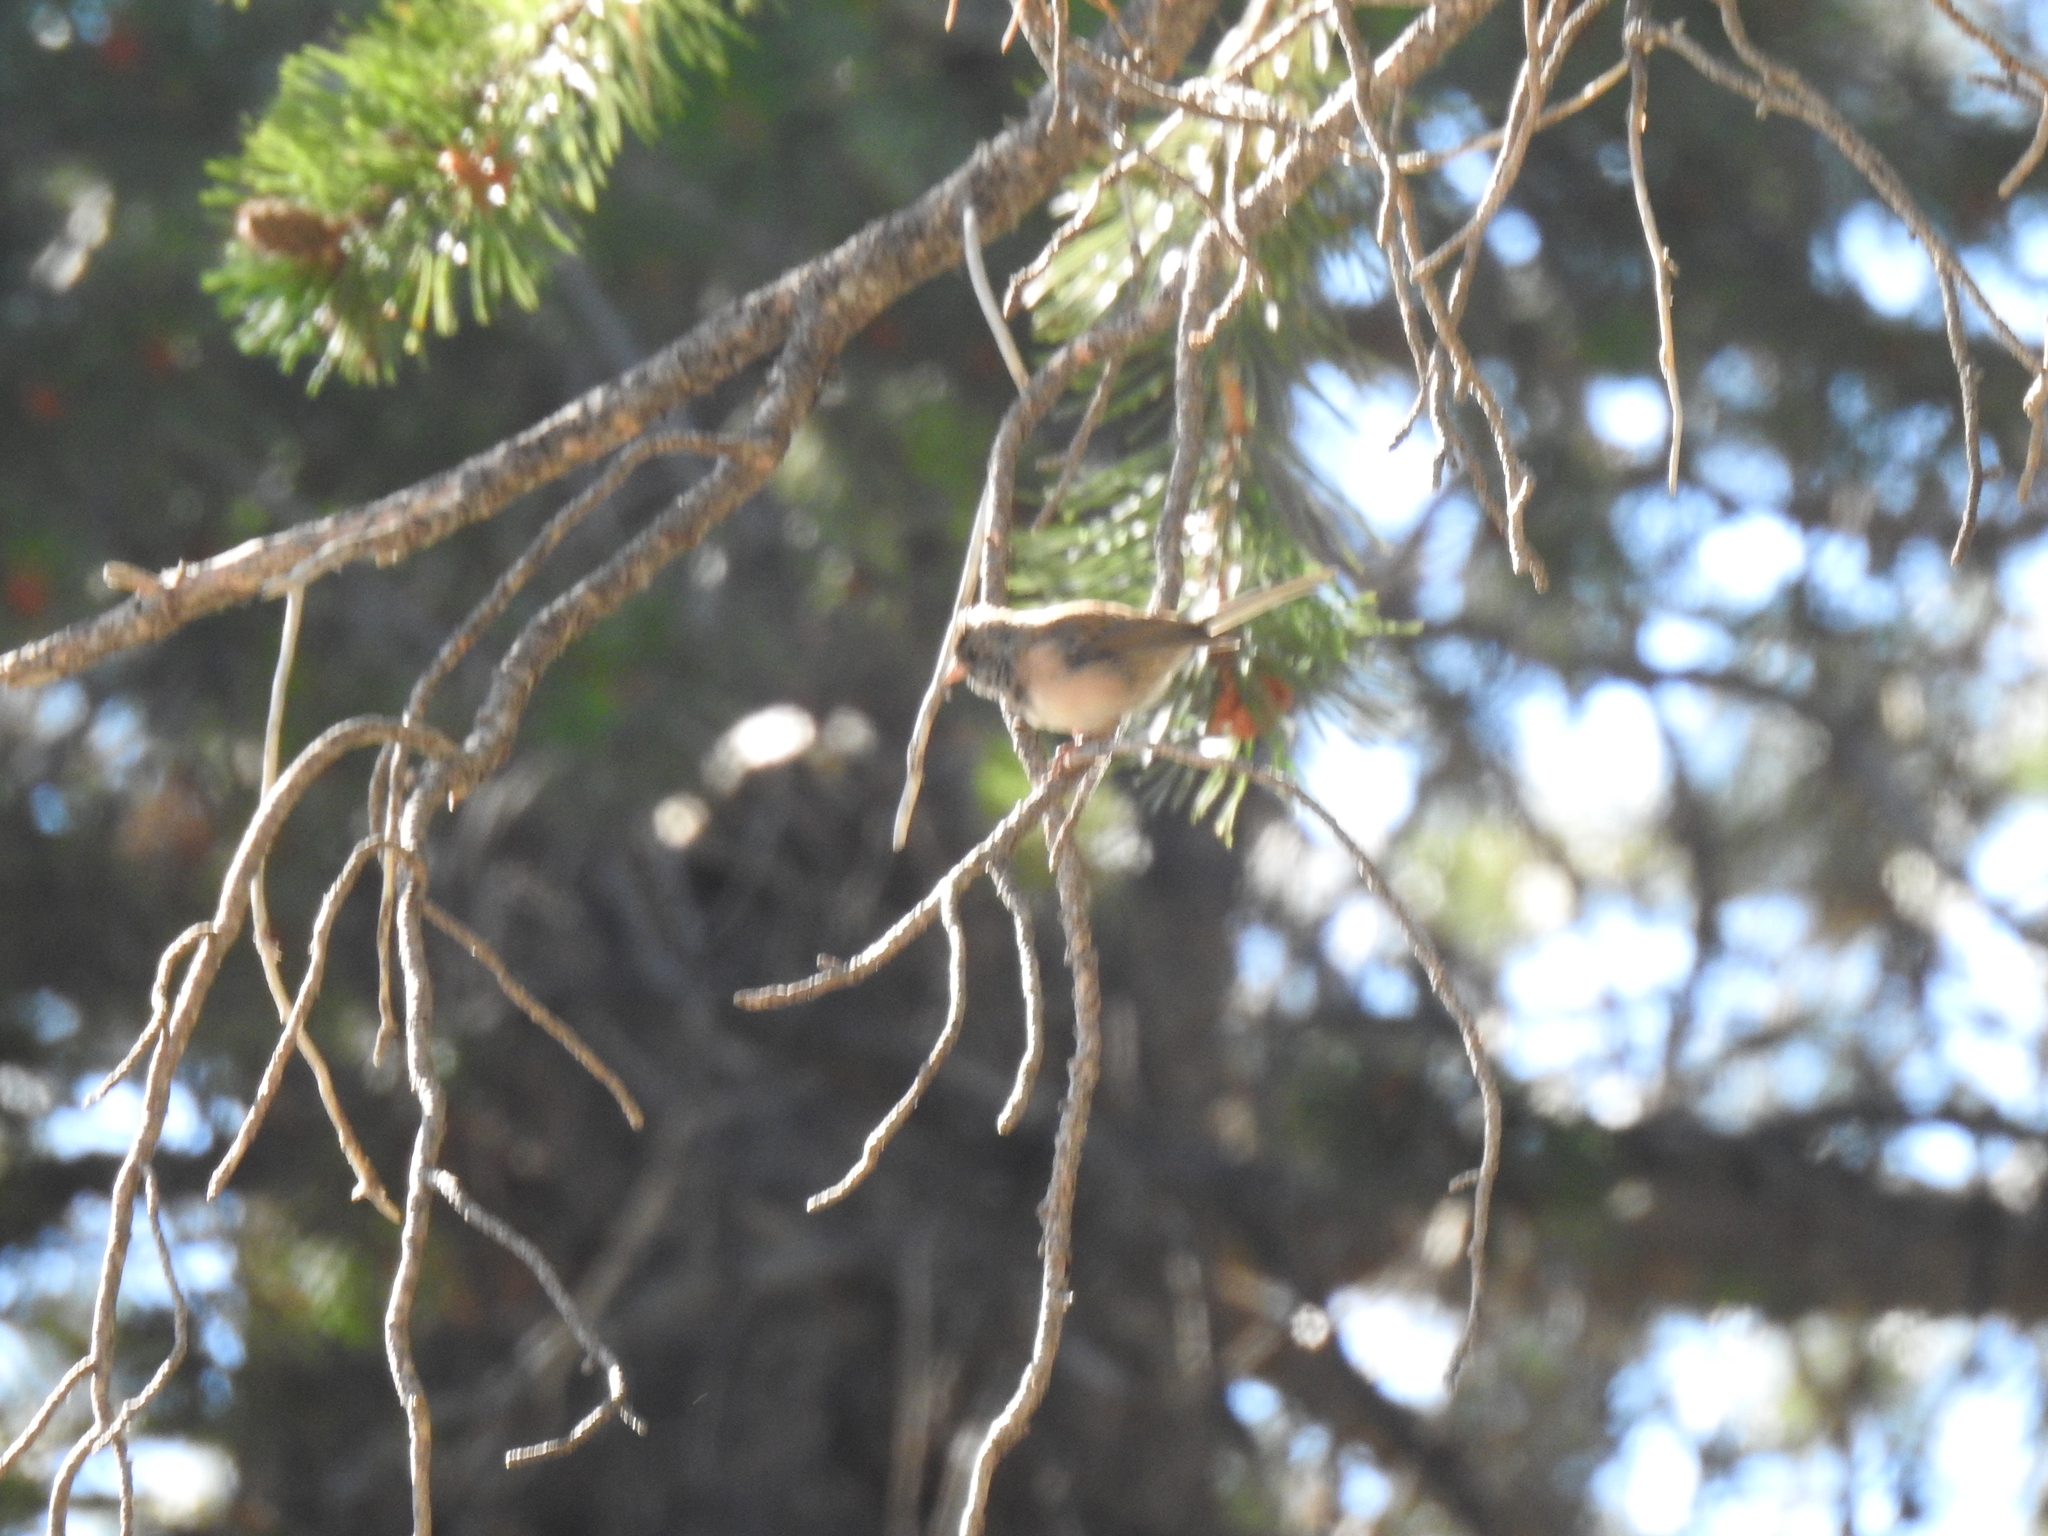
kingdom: Animalia
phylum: Chordata
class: Aves
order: Passeriformes
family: Passerellidae
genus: Junco
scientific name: Junco hyemalis
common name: Dark-eyed junco
